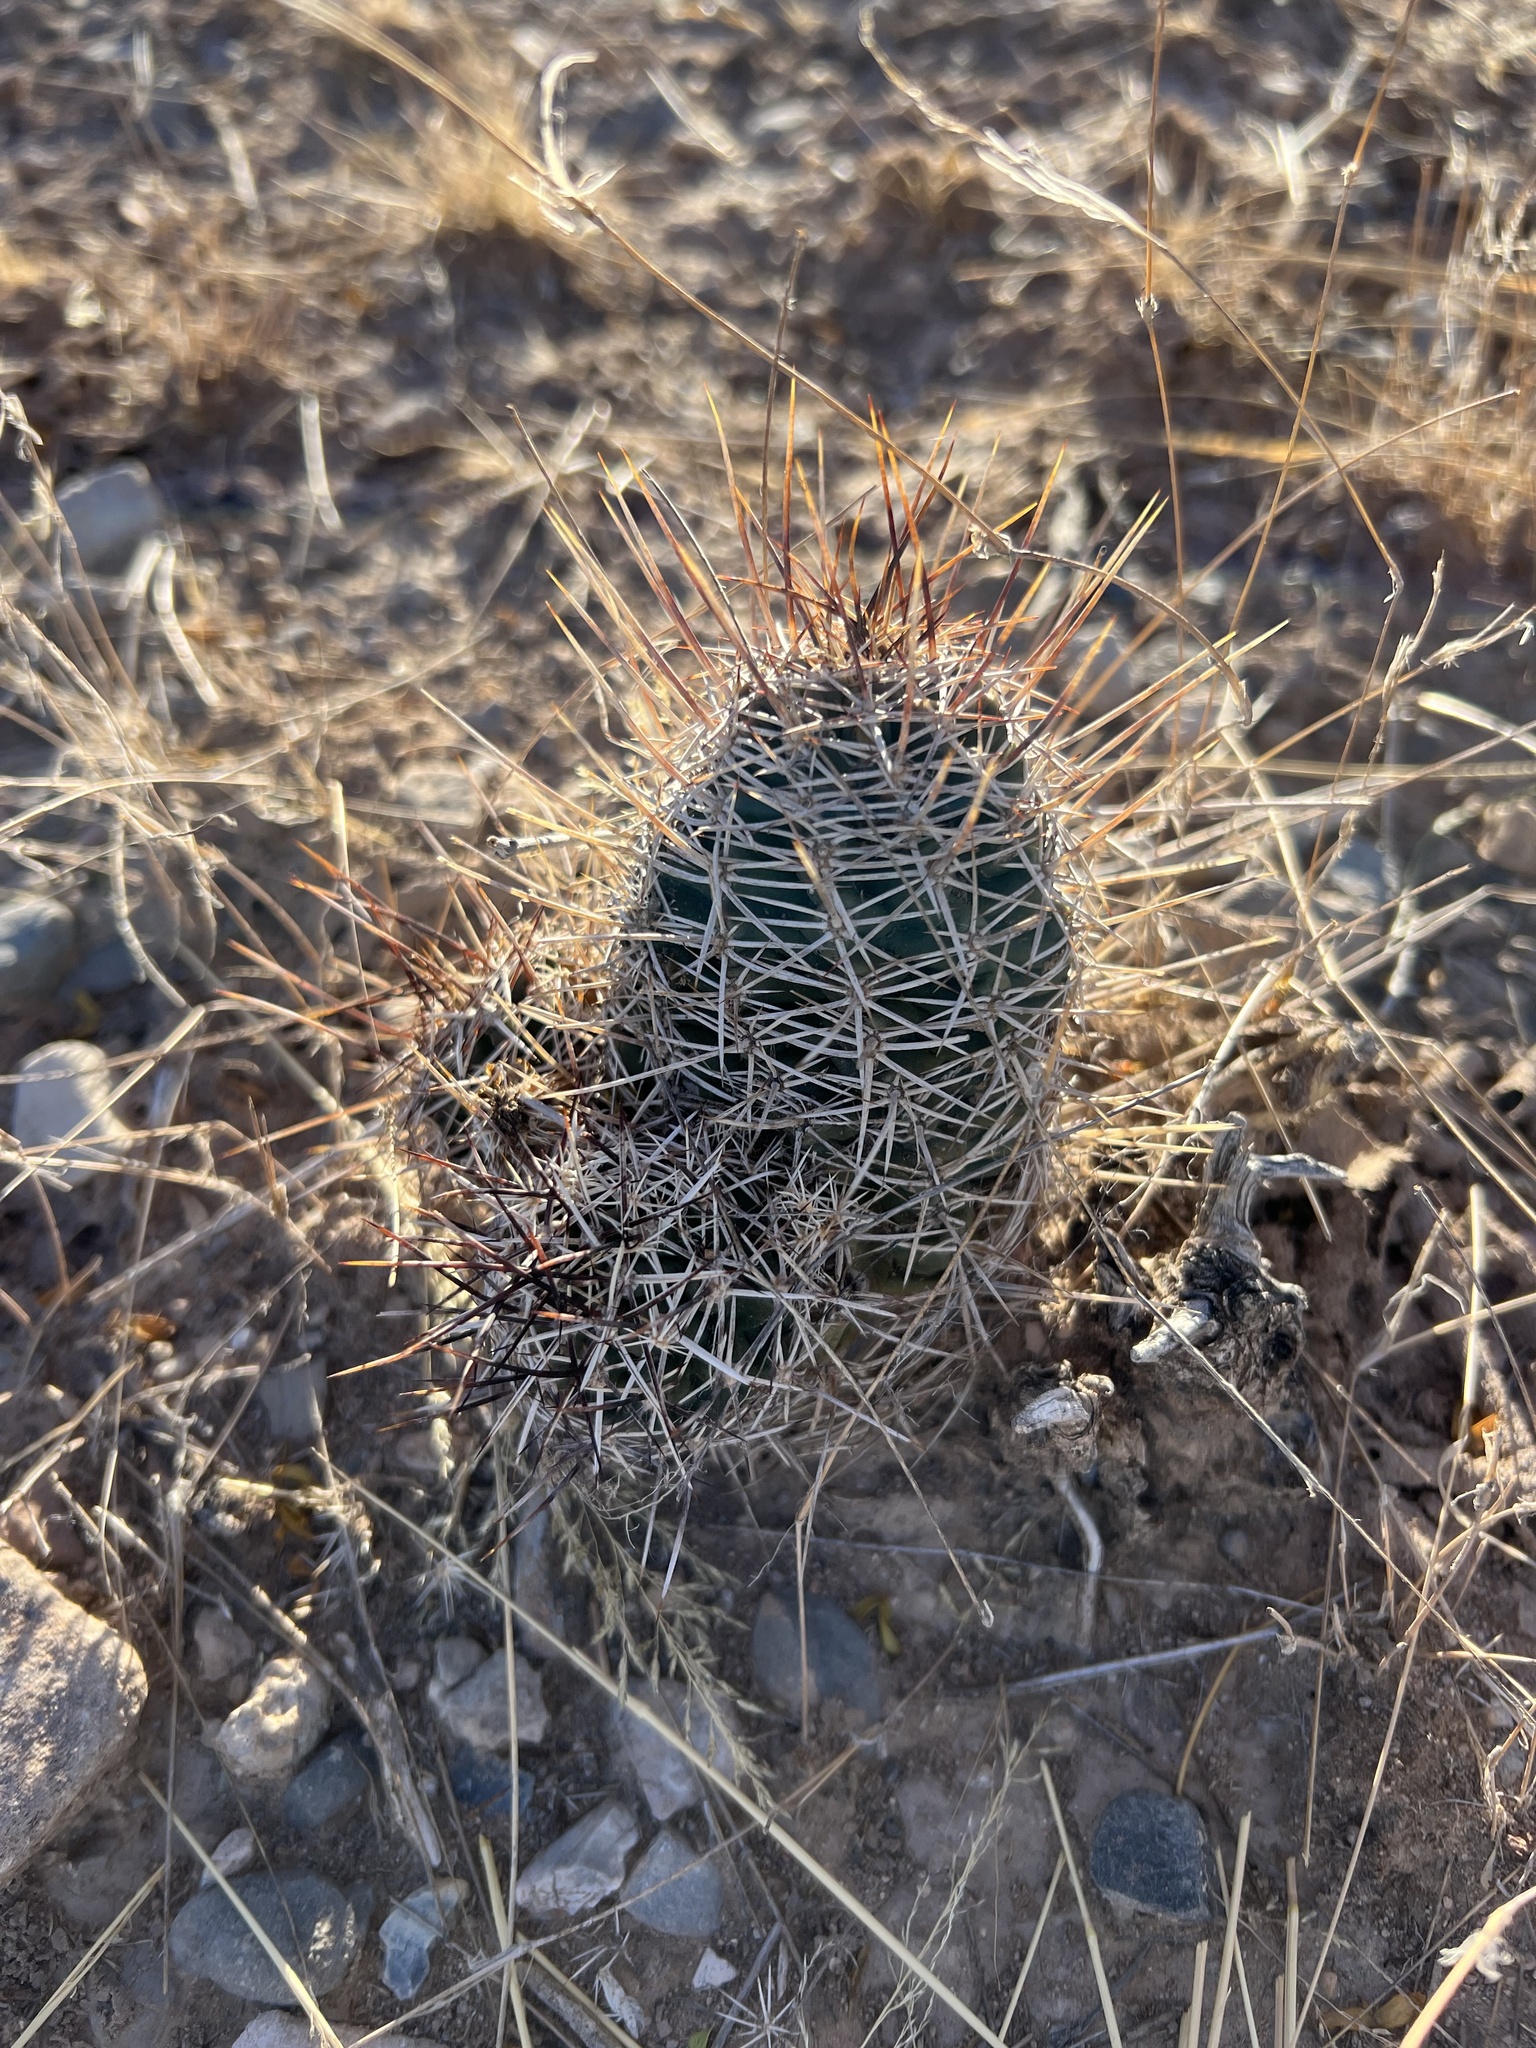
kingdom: Plantae
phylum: Tracheophyta
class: Magnoliopsida
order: Caryophyllales
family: Cactaceae
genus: Echinocereus
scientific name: Echinocereus fendleri
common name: Fendler's hedgehog cactus
